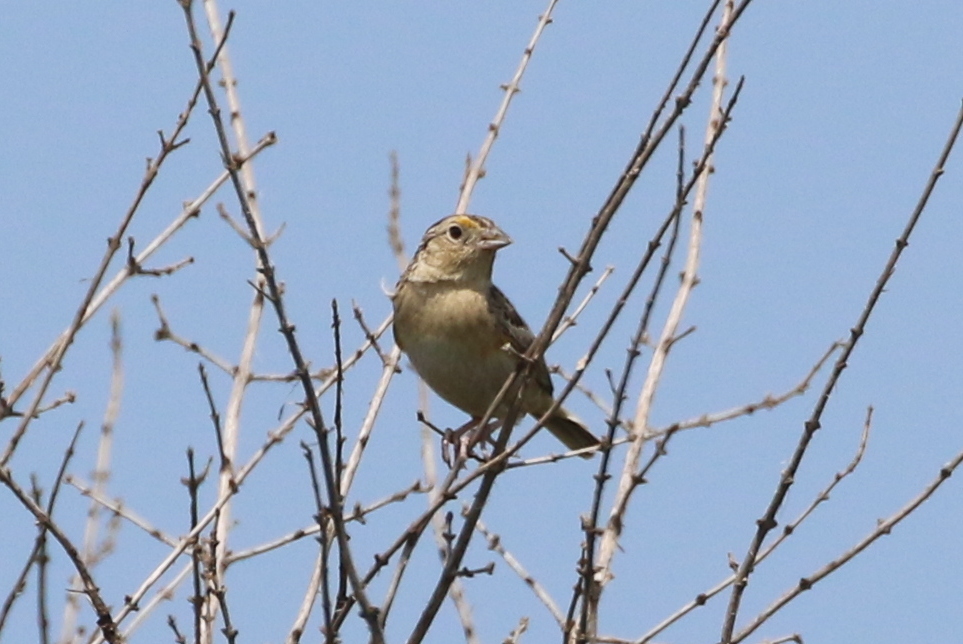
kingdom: Animalia
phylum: Chordata
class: Aves
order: Passeriformes
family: Passerellidae
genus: Ammodramus
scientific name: Ammodramus savannarum
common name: Grasshopper sparrow
